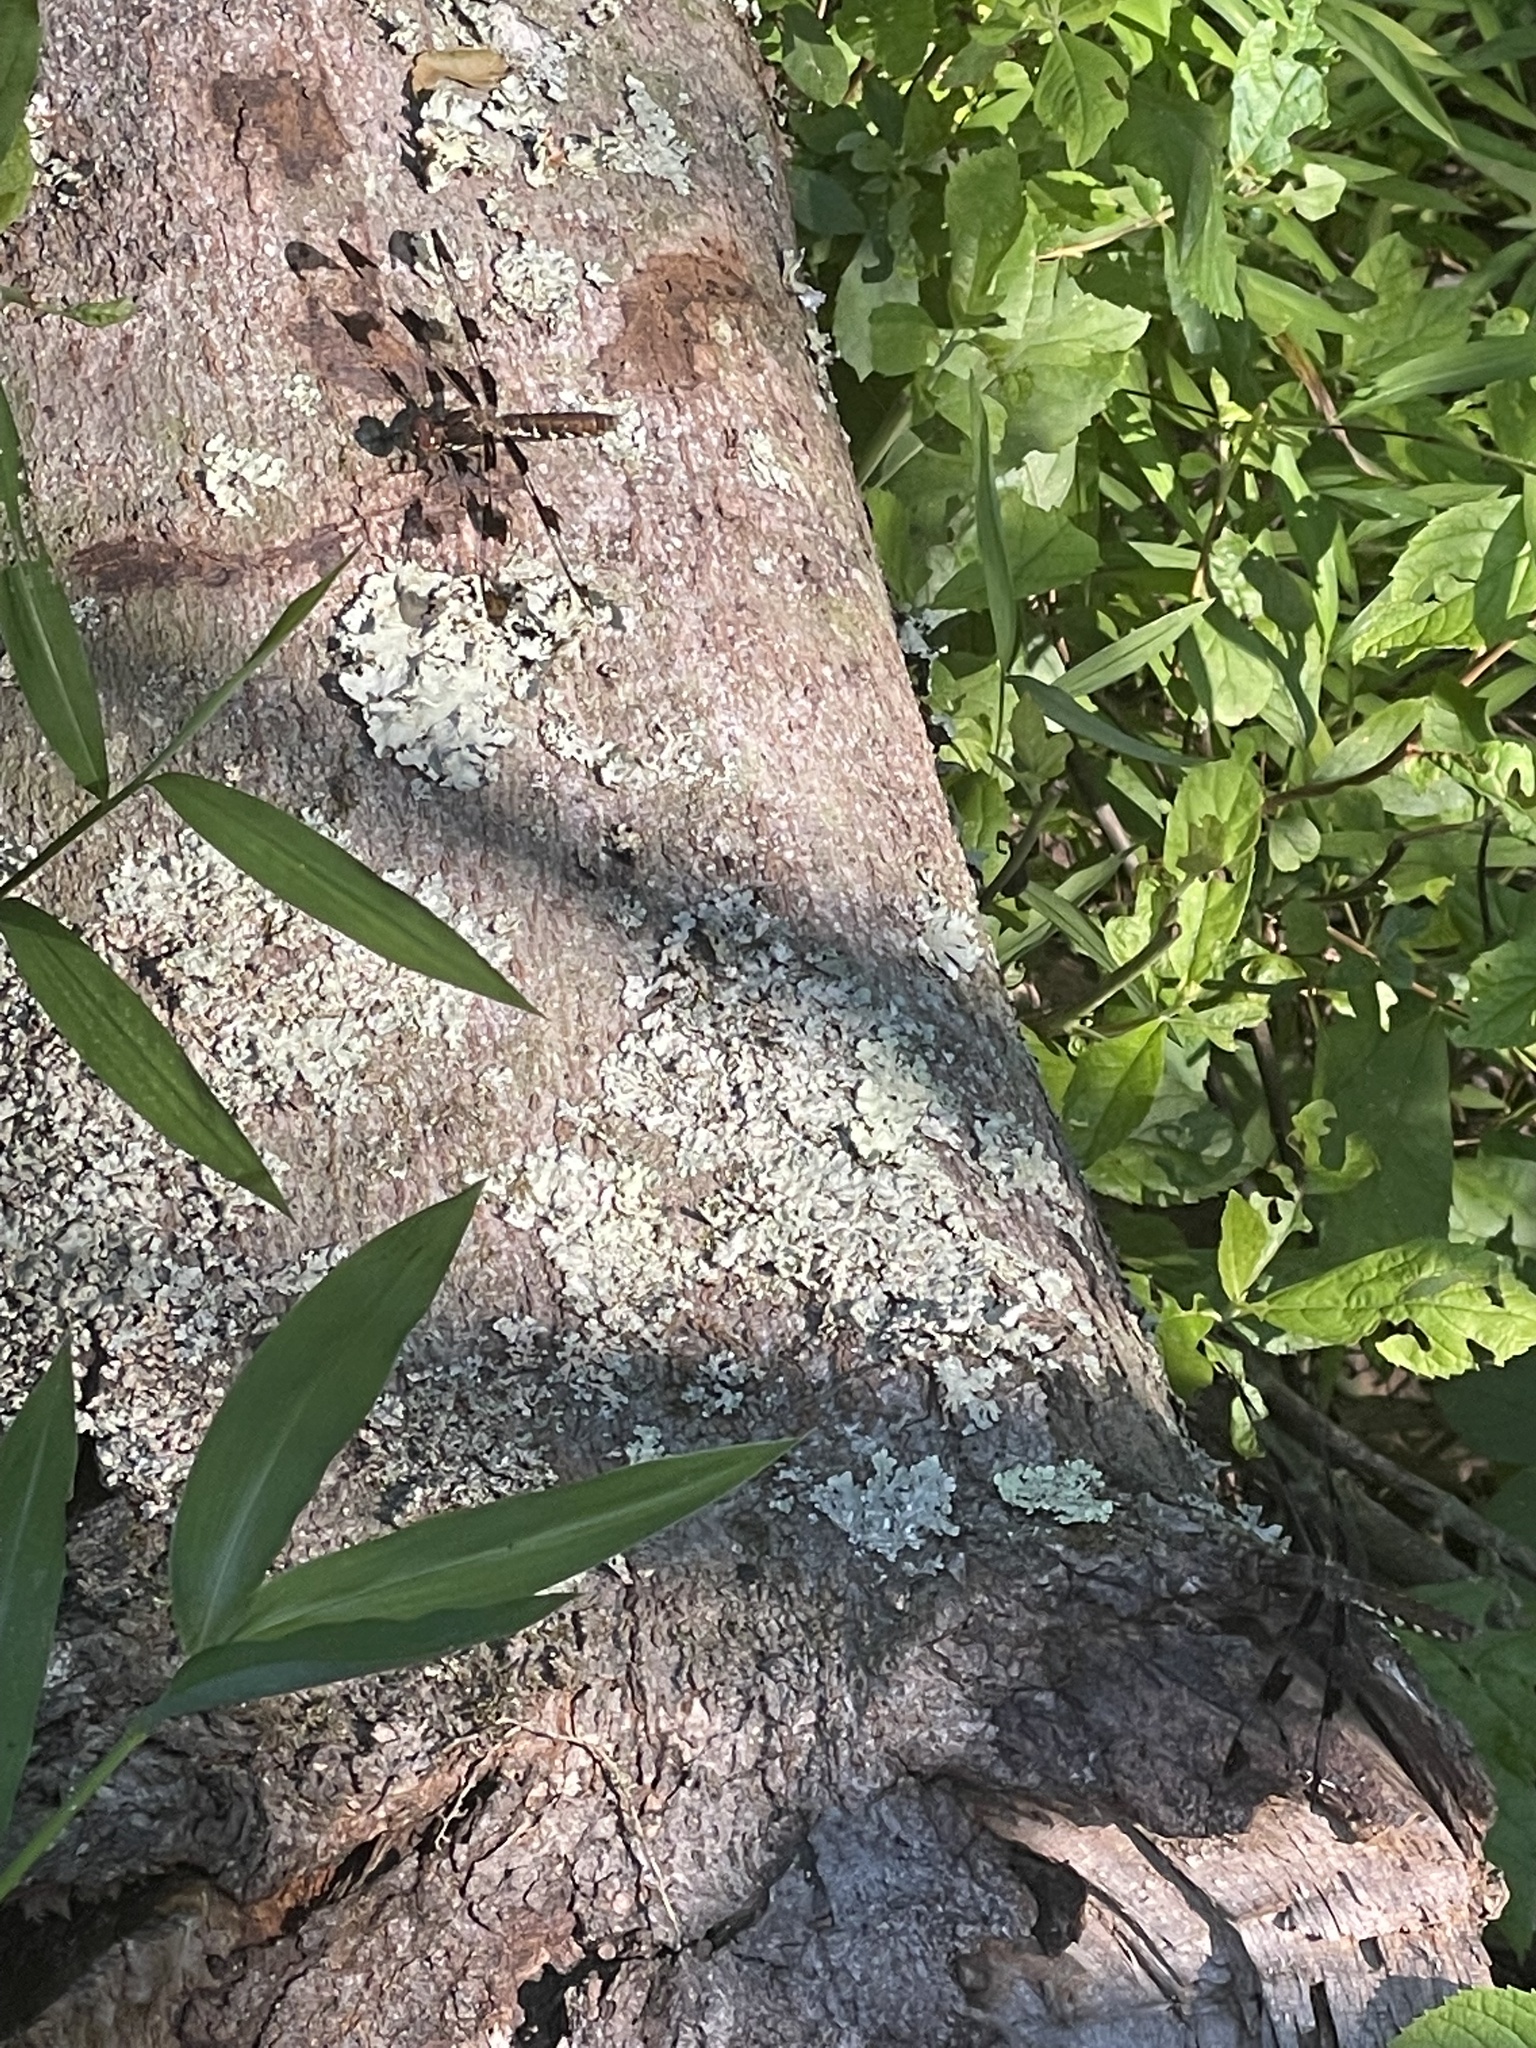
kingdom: Animalia
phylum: Arthropoda
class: Insecta
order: Odonata
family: Libellulidae
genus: Plathemis
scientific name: Plathemis lydia
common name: Common whitetail
